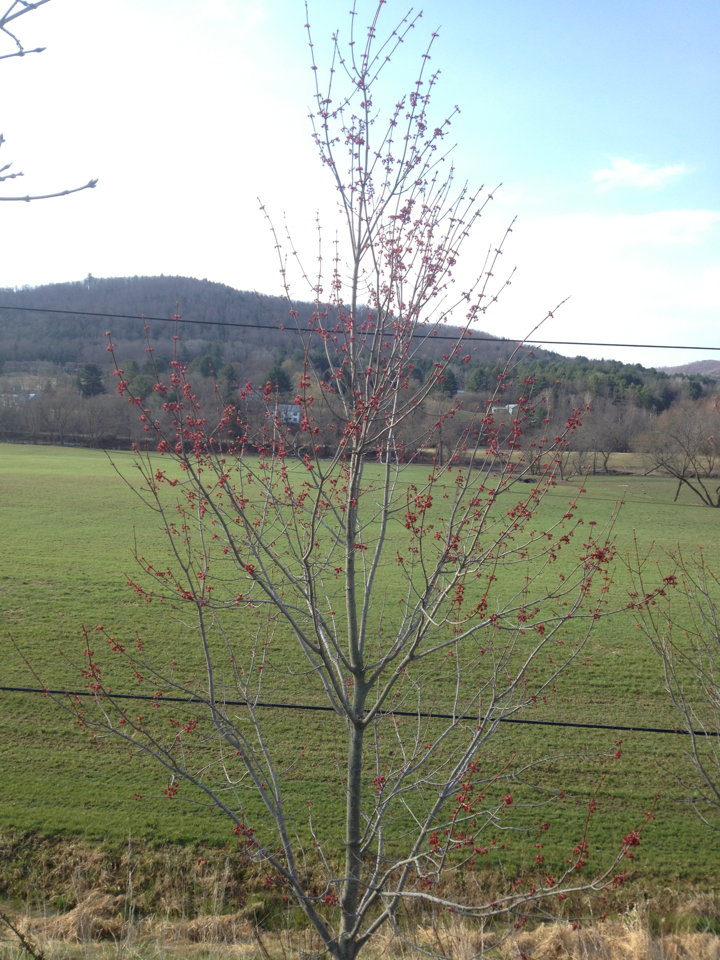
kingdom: Plantae
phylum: Tracheophyta
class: Magnoliopsida
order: Sapindales
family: Sapindaceae
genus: Acer
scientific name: Acer rubrum
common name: Red maple
